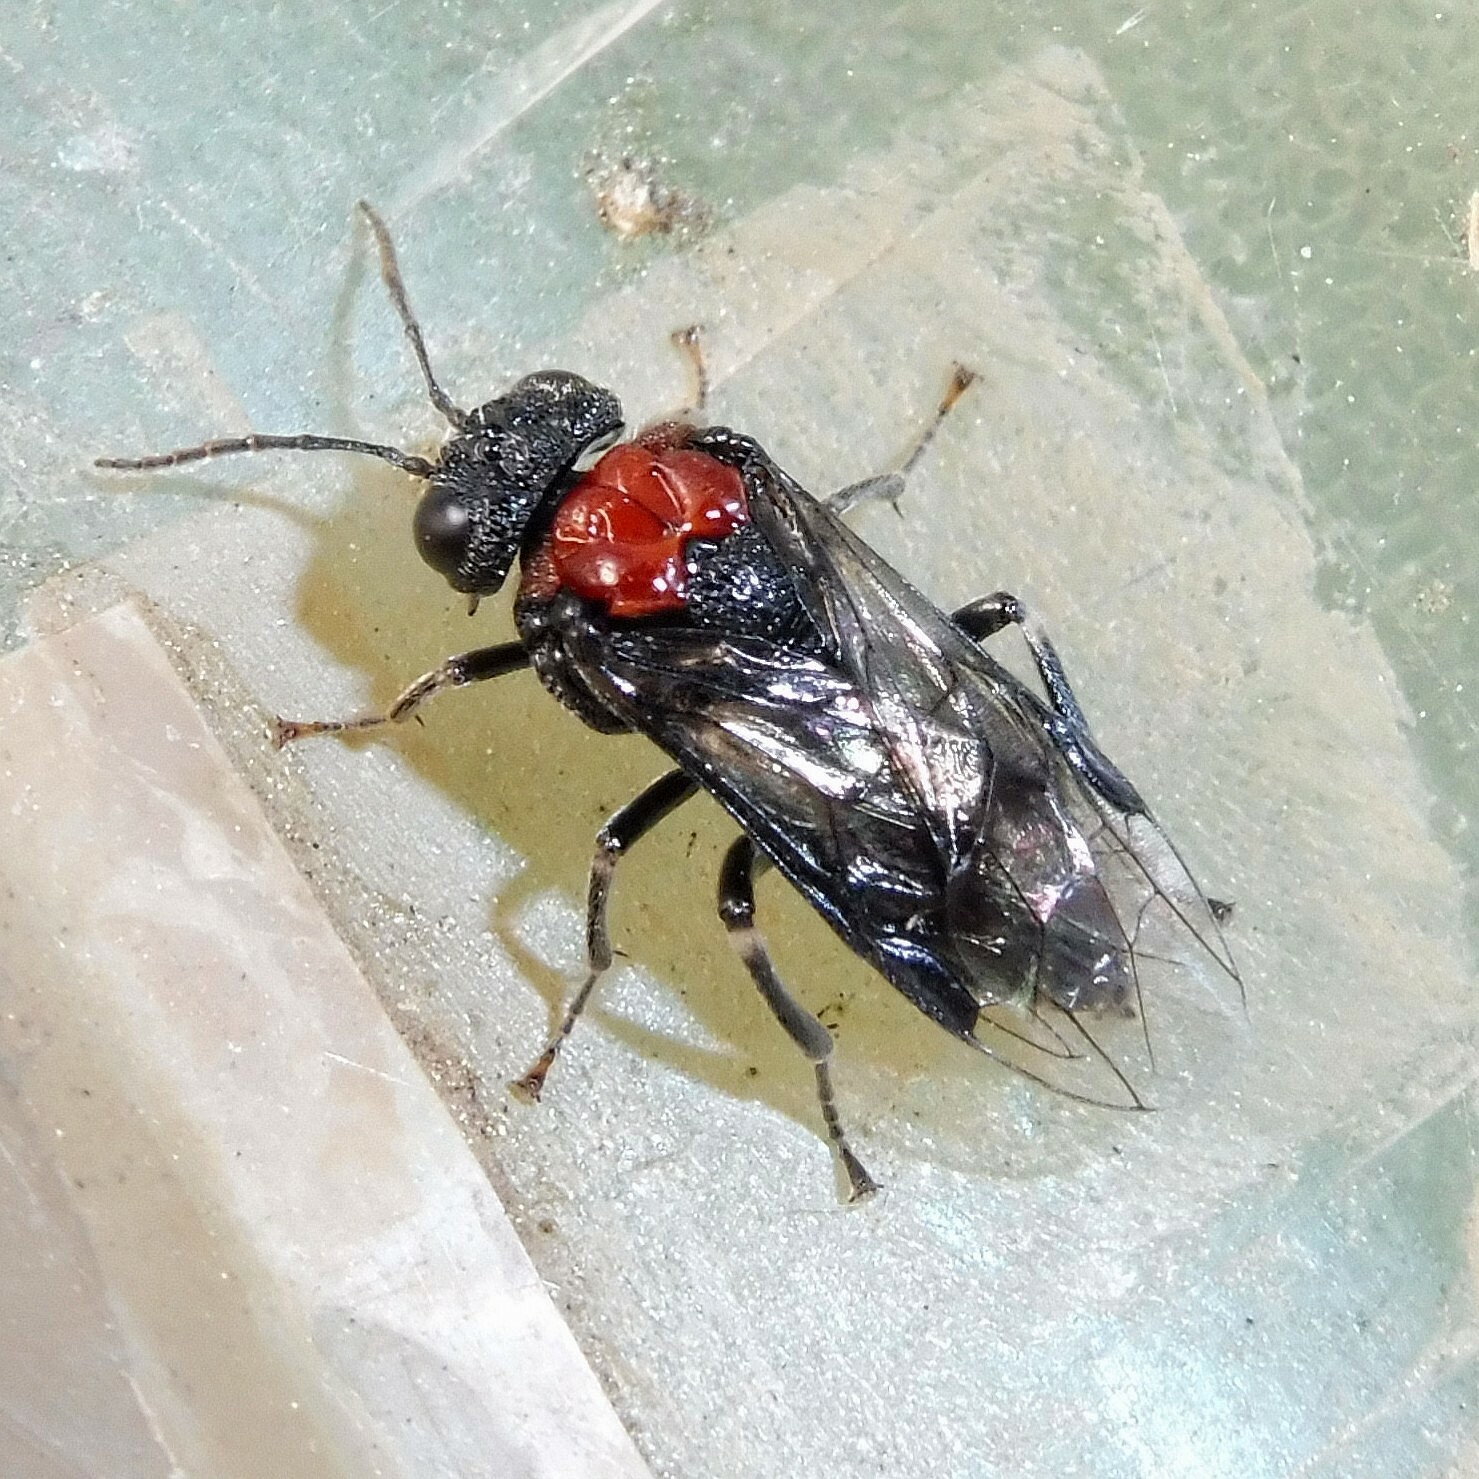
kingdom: Animalia
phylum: Arthropoda
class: Insecta
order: Hymenoptera
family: Tenthredinidae
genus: Eriocampa
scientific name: Eriocampa ovata
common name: Alder wooly sawfly
